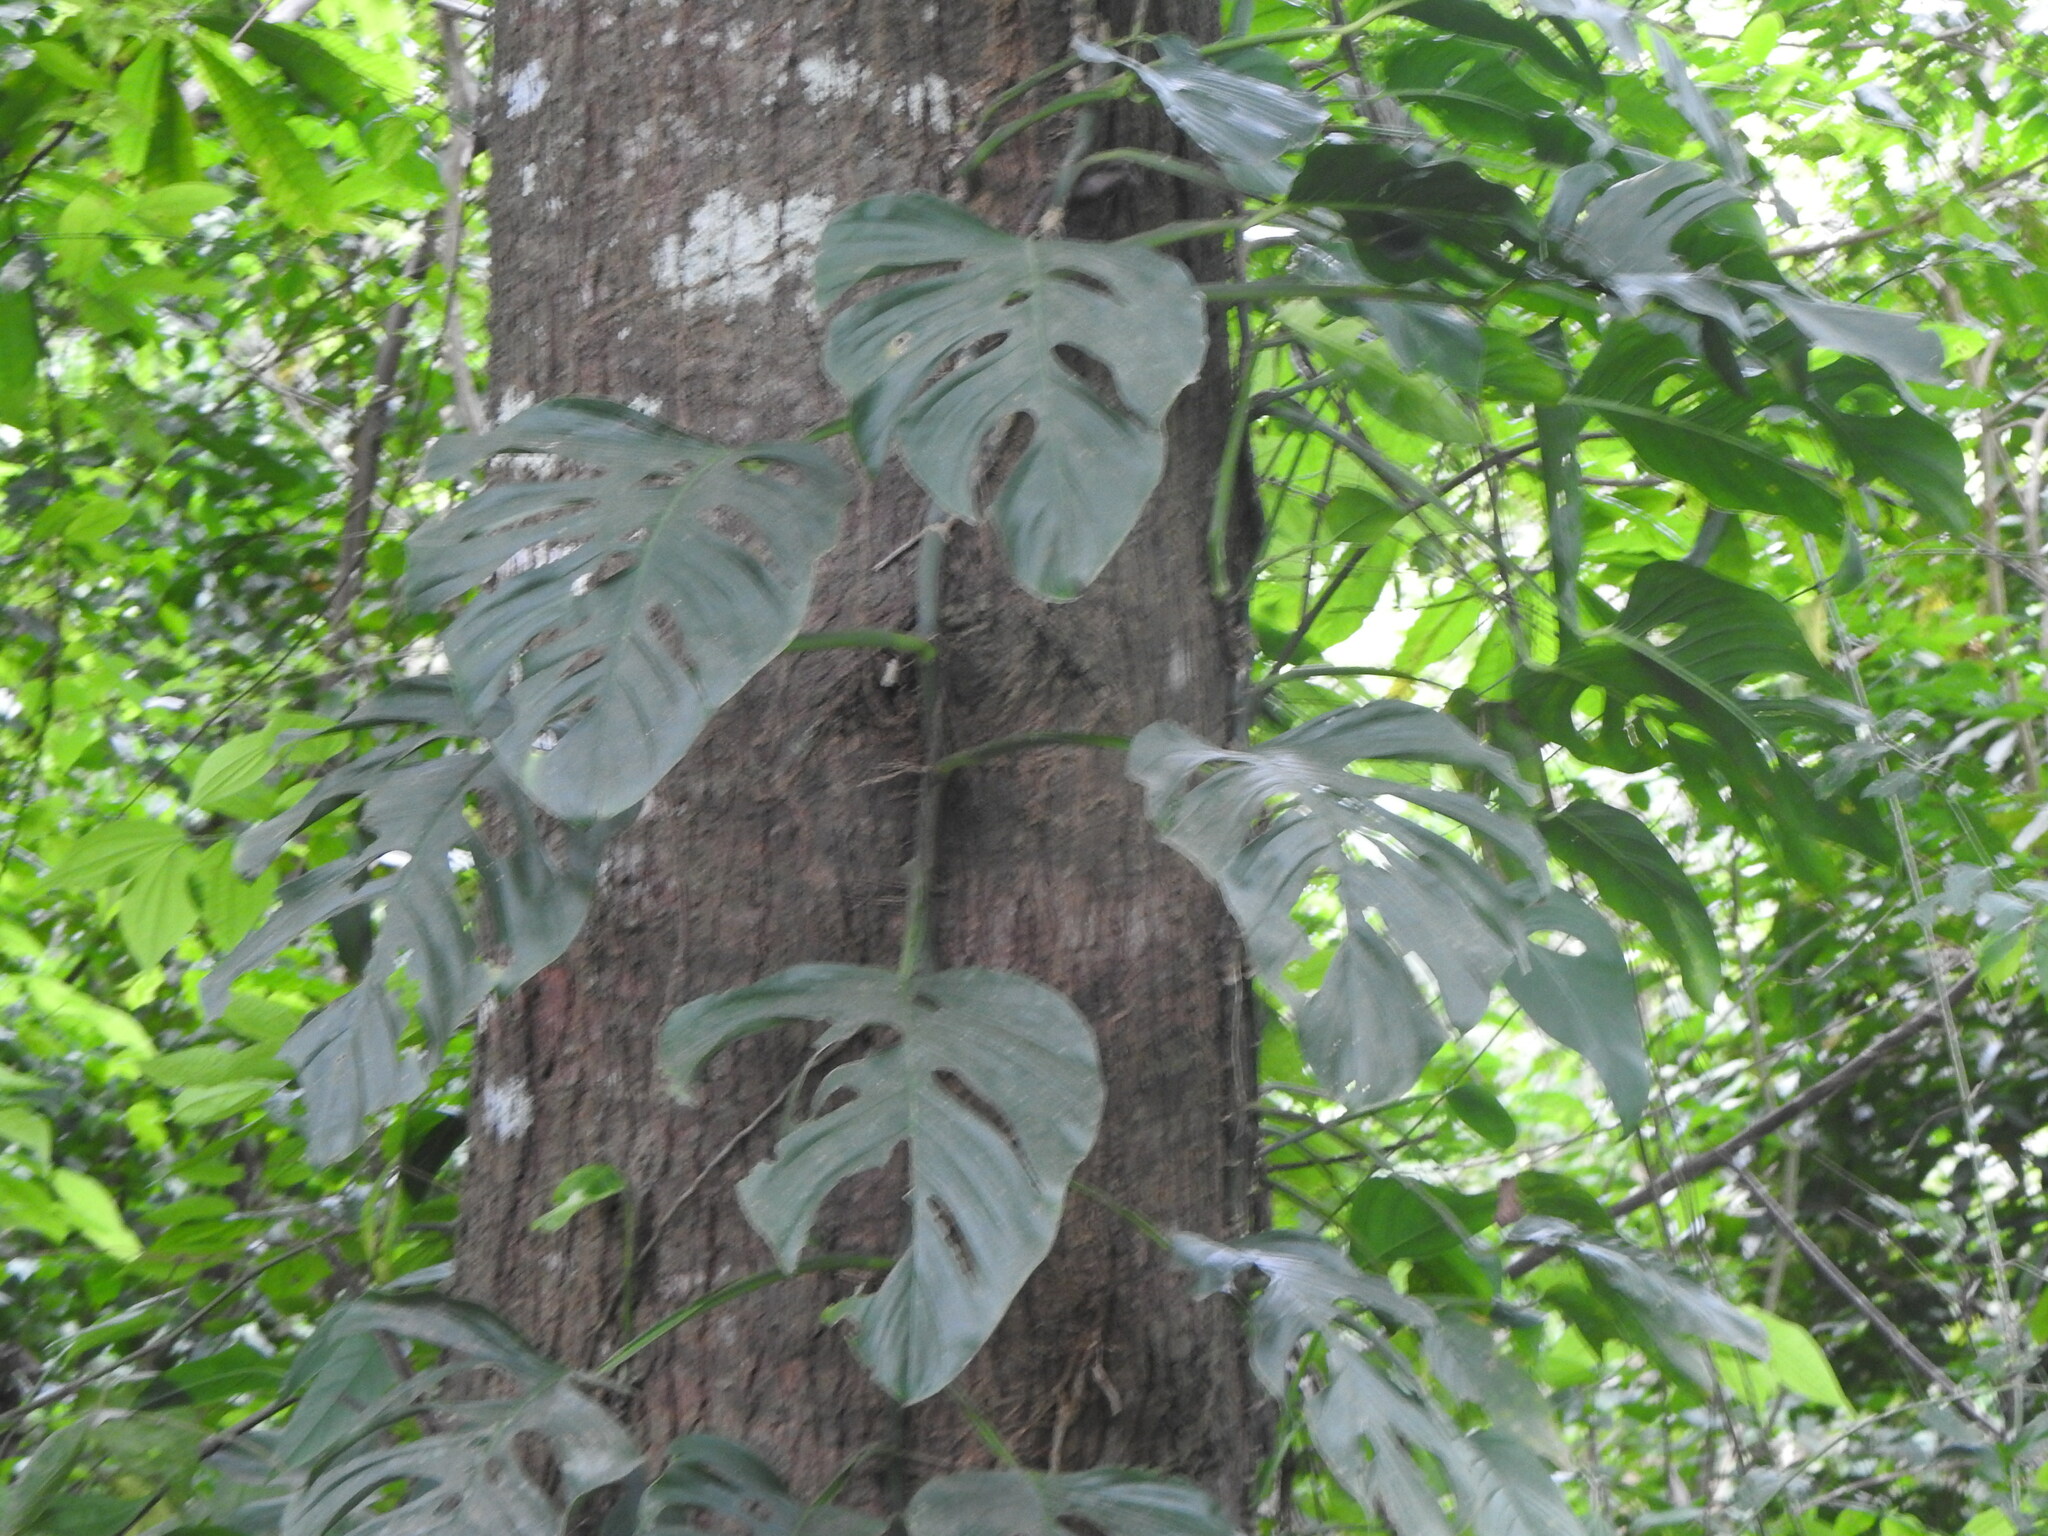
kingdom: Plantae
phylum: Tracheophyta
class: Liliopsida
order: Alismatales
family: Araceae
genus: Monstera
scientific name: Monstera adansonii
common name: Tarovine
